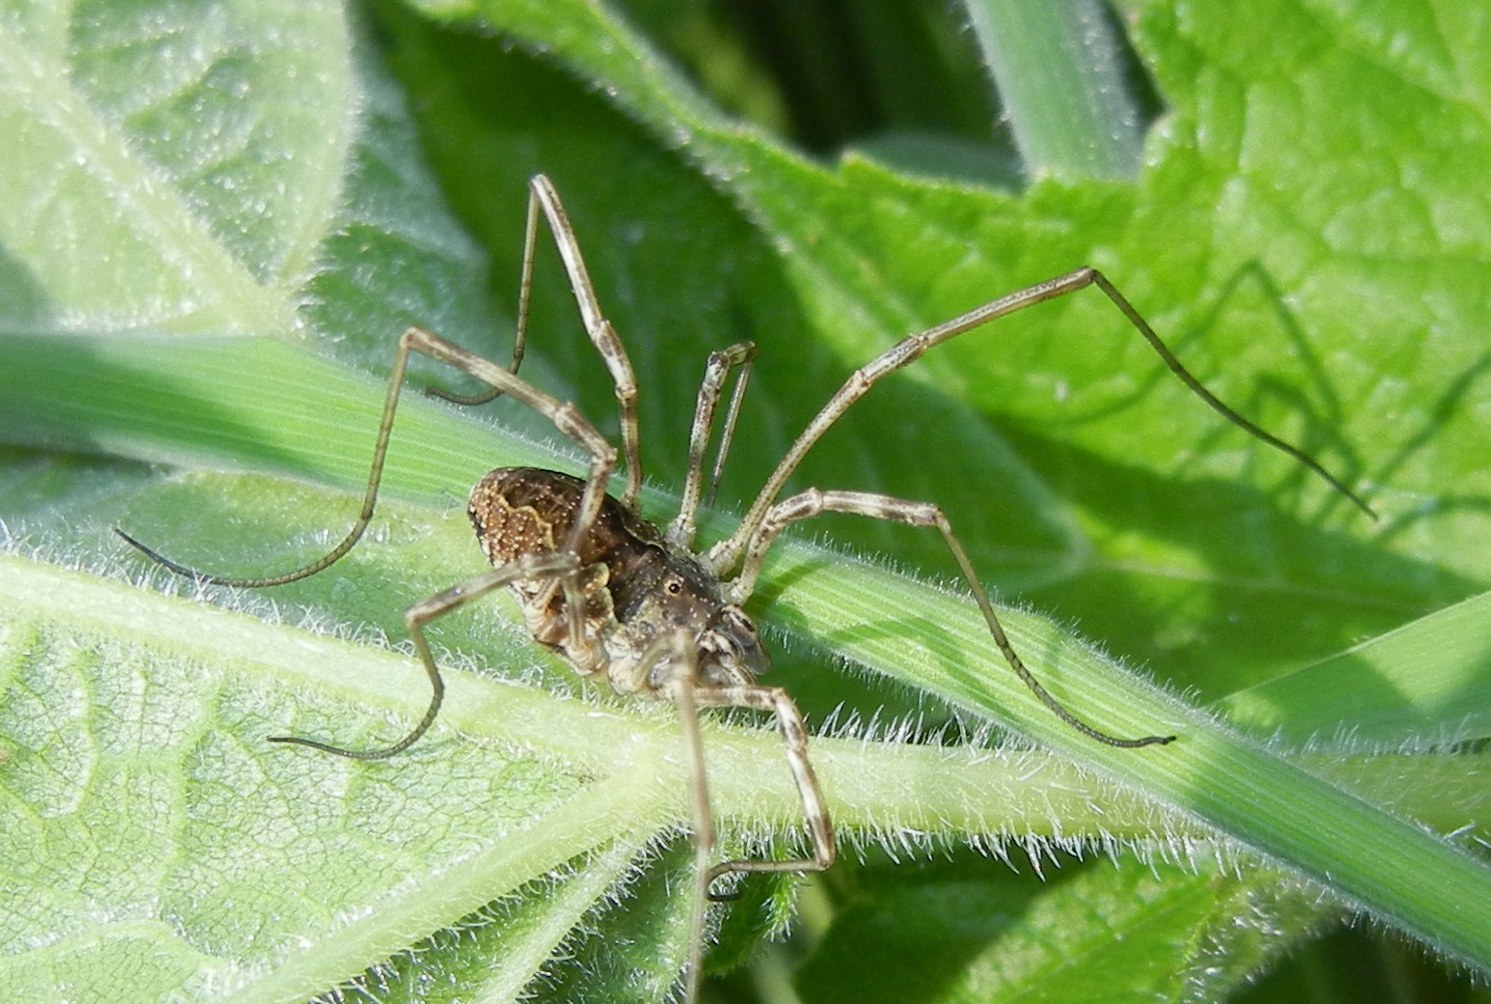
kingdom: Animalia
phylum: Arthropoda
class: Arachnida
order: Opiliones
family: Phalangiidae
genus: Mitopus
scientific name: Mitopus morio
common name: Saddleback harvestman
